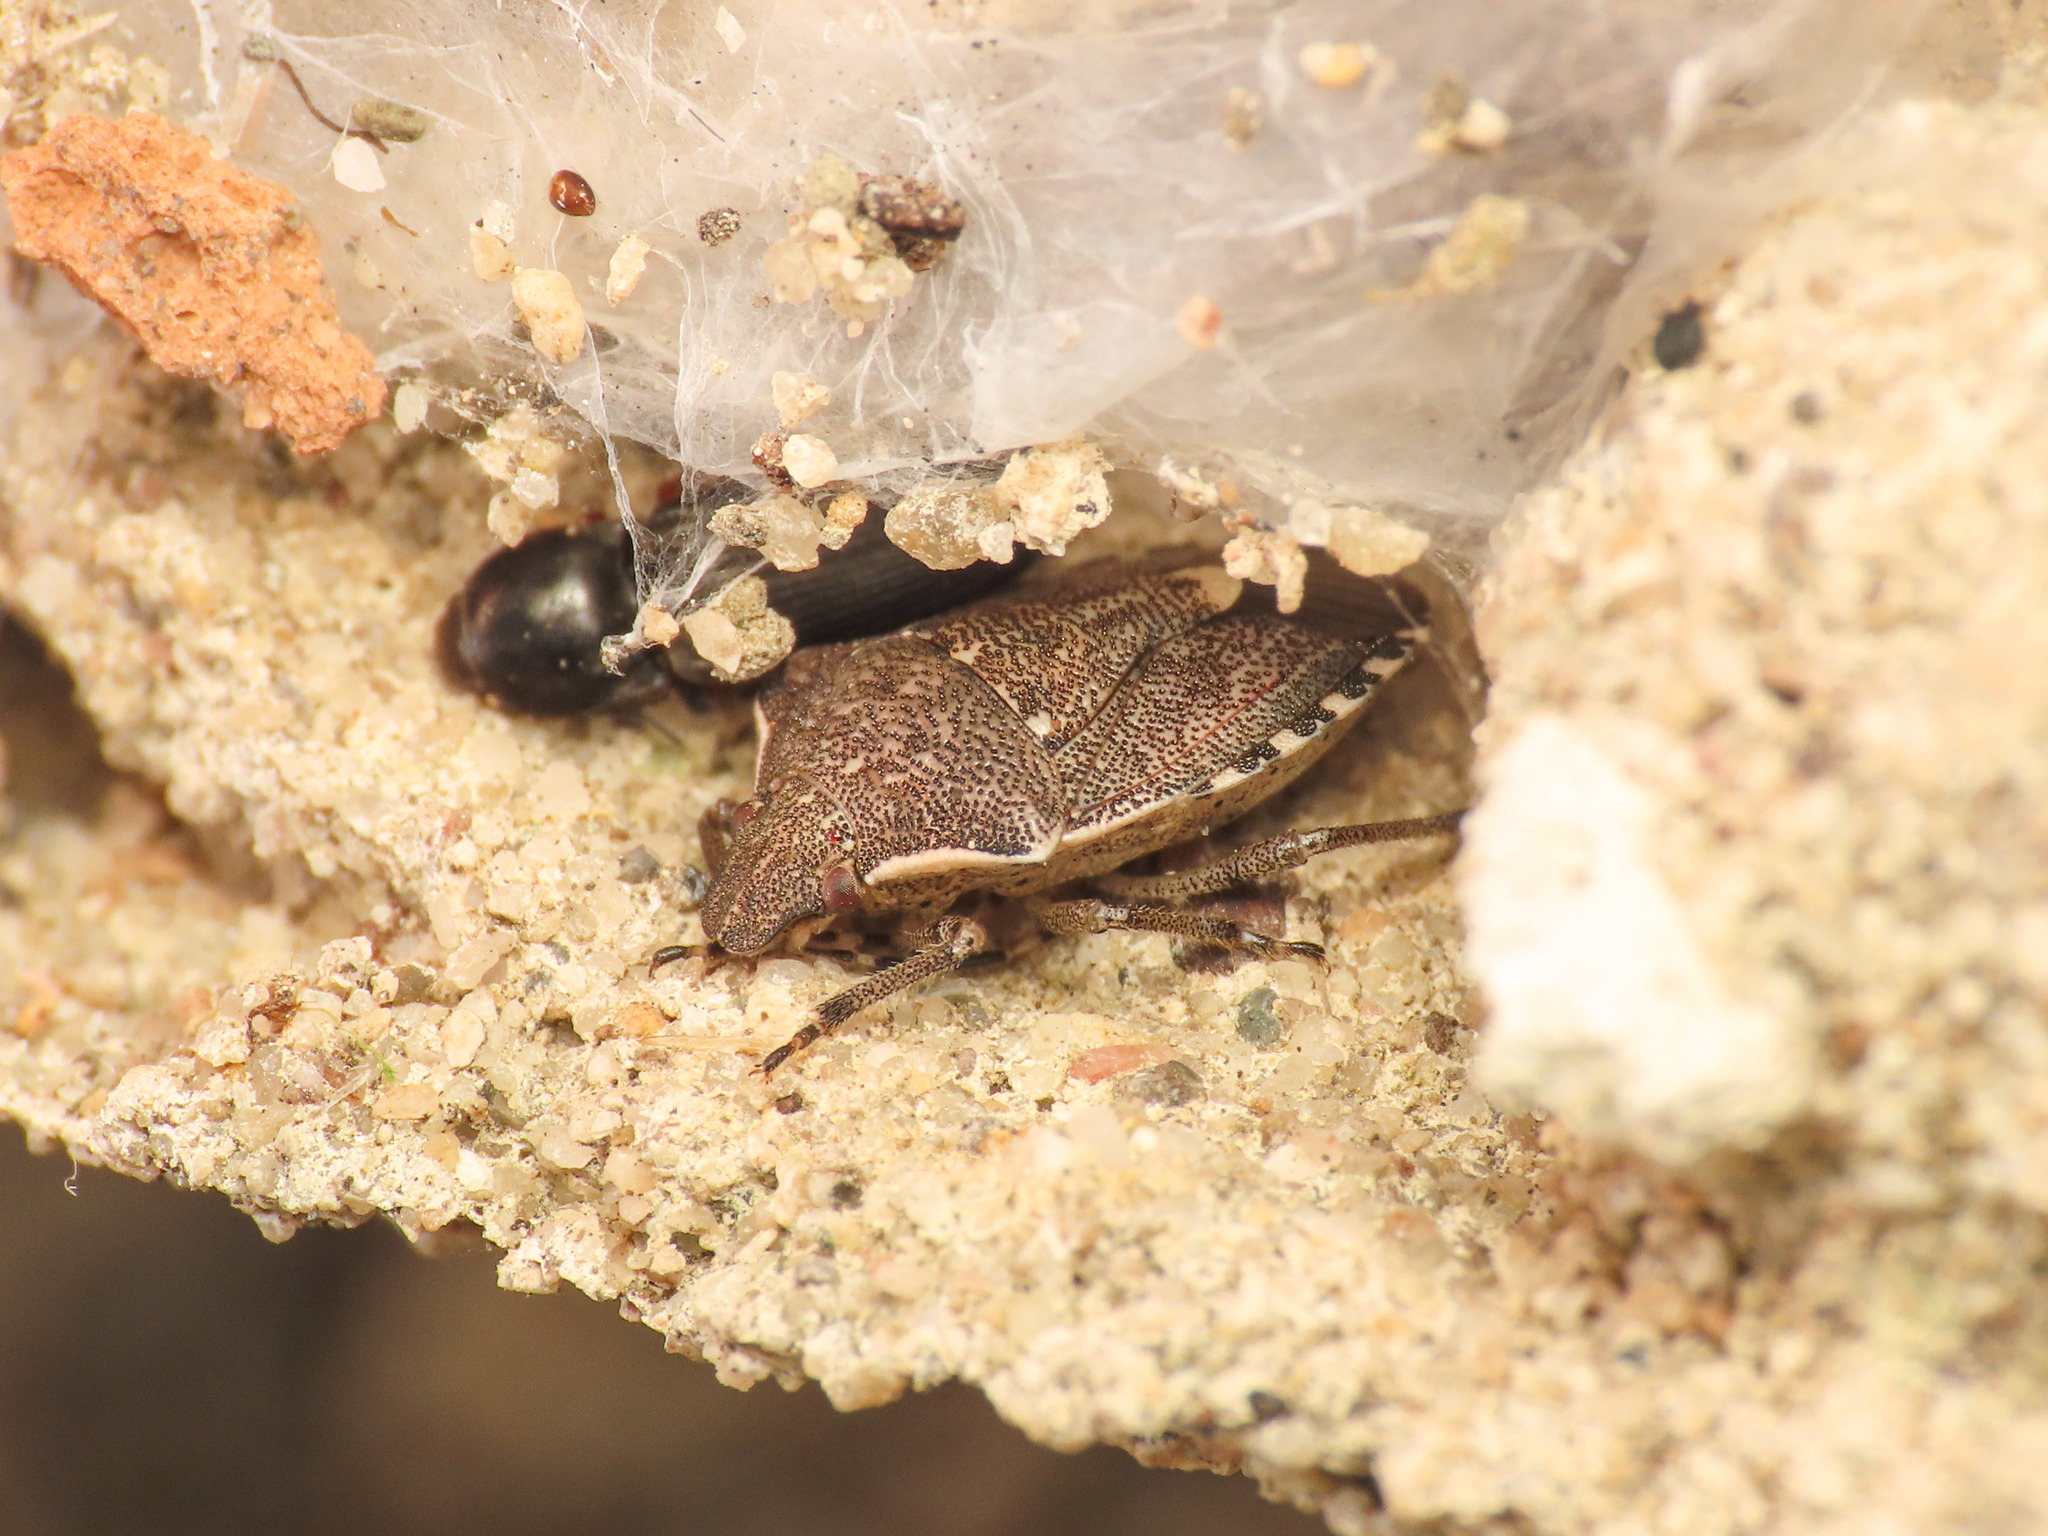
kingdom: Animalia
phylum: Arthropoda
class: Insecta
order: Hemiptera
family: Pentatomidae
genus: Holcostethus
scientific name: Holcostethus albipes
